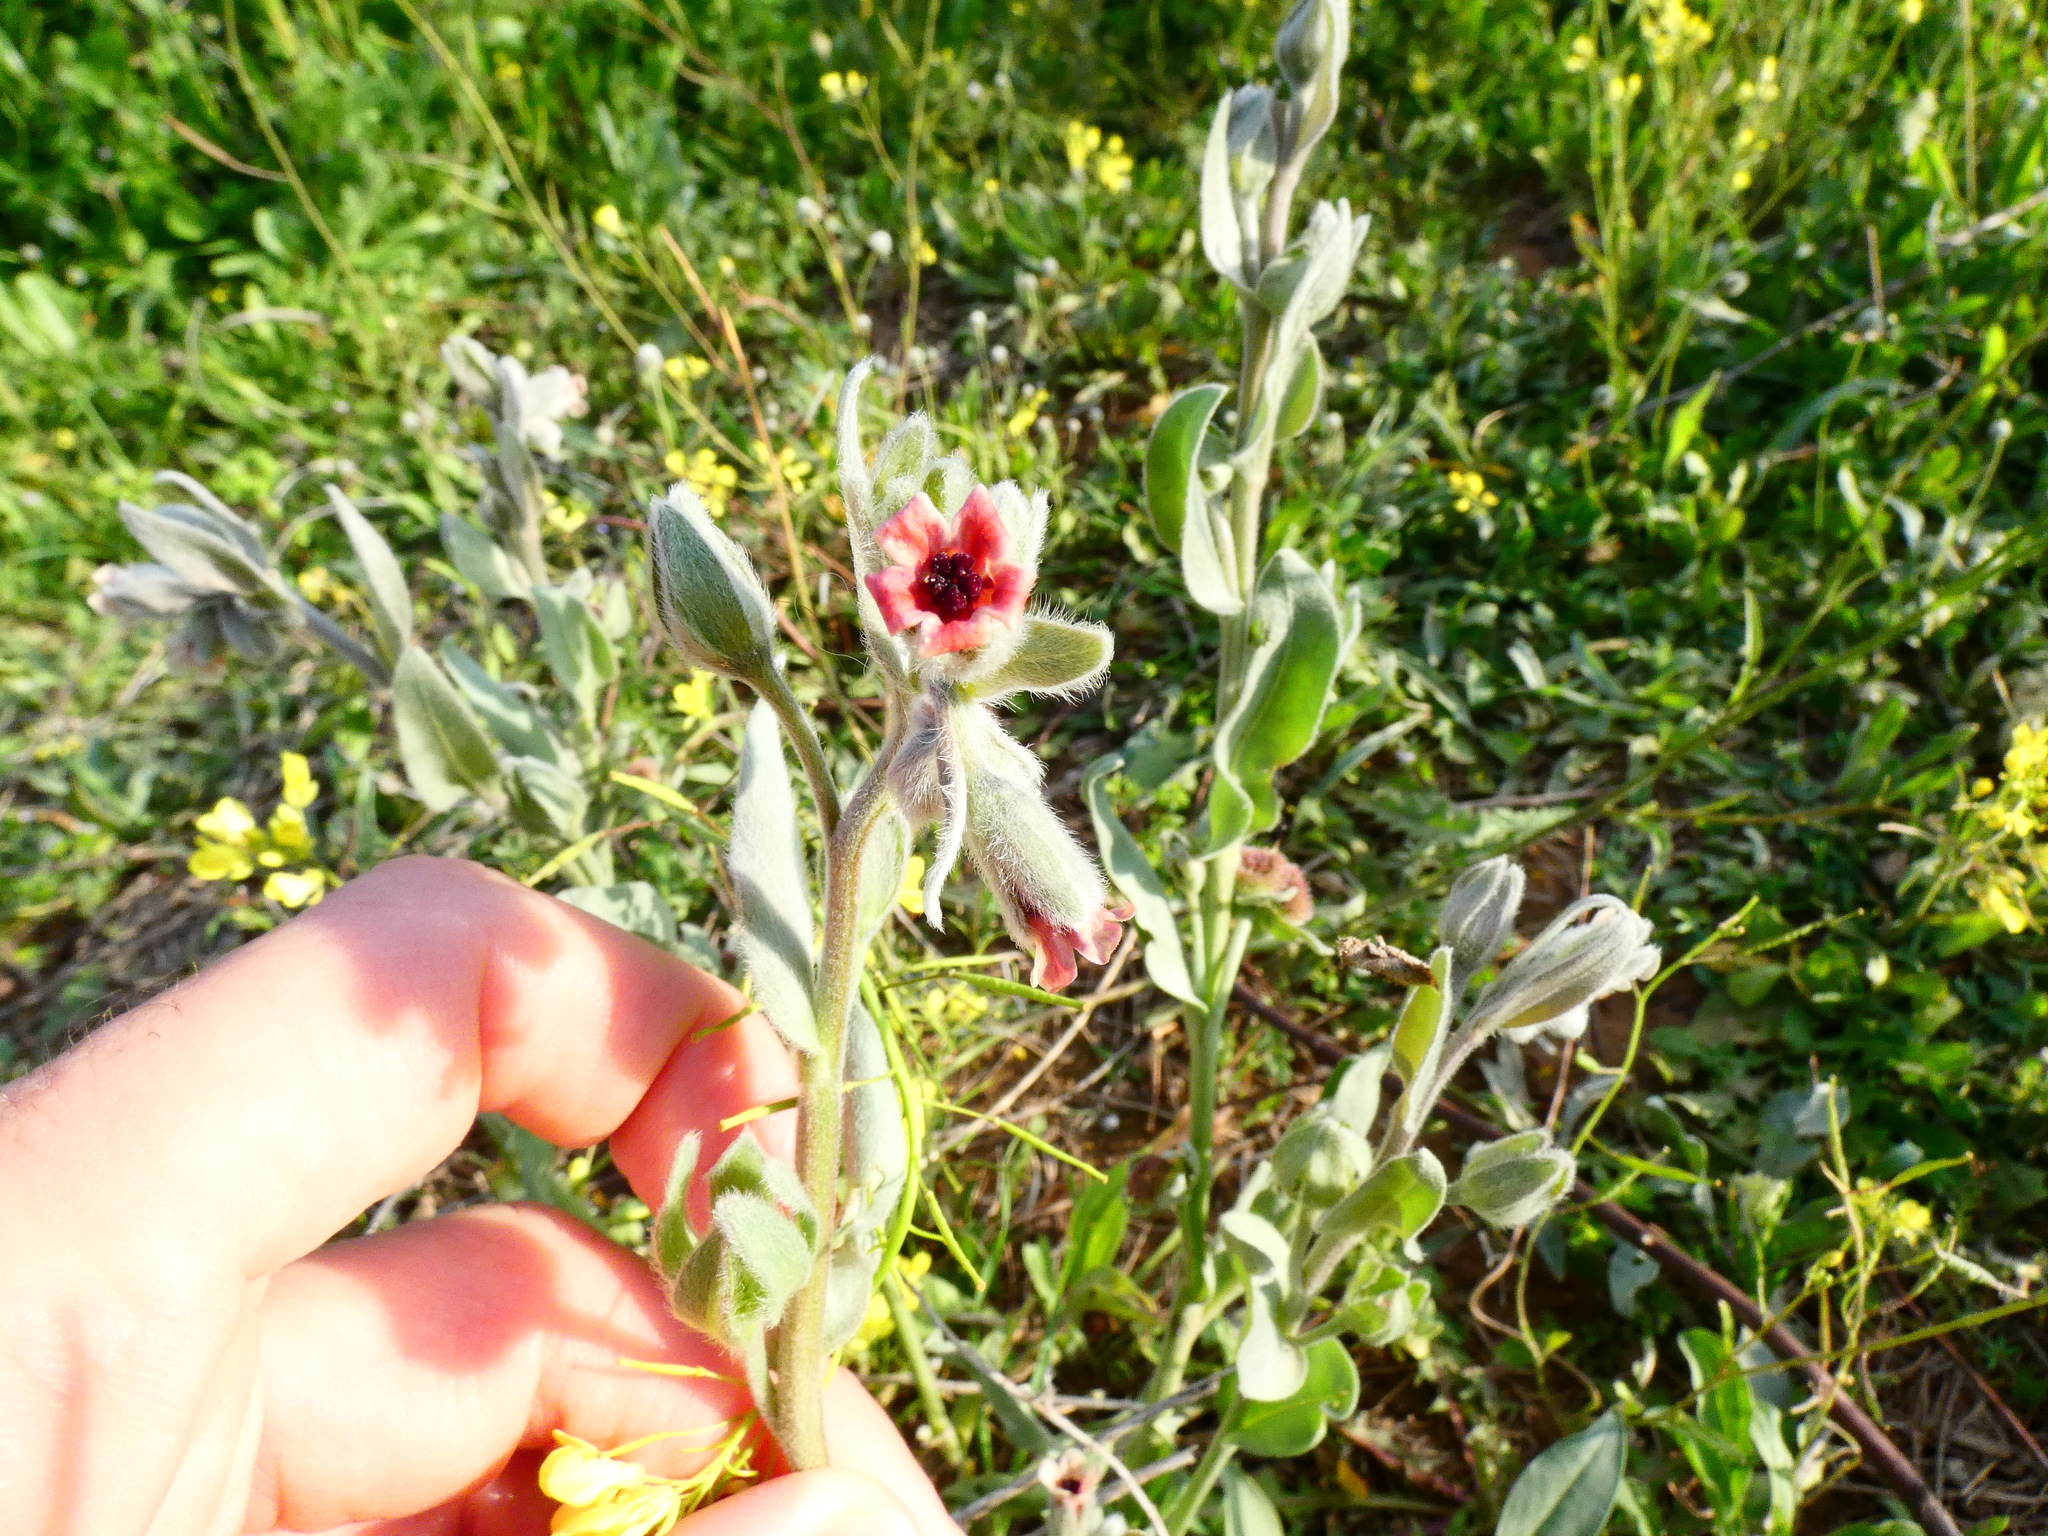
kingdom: Plantae
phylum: Tracheophyta
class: Magnoliopsida
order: Boraginales
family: Boraginaceae
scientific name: Boraginaceae
